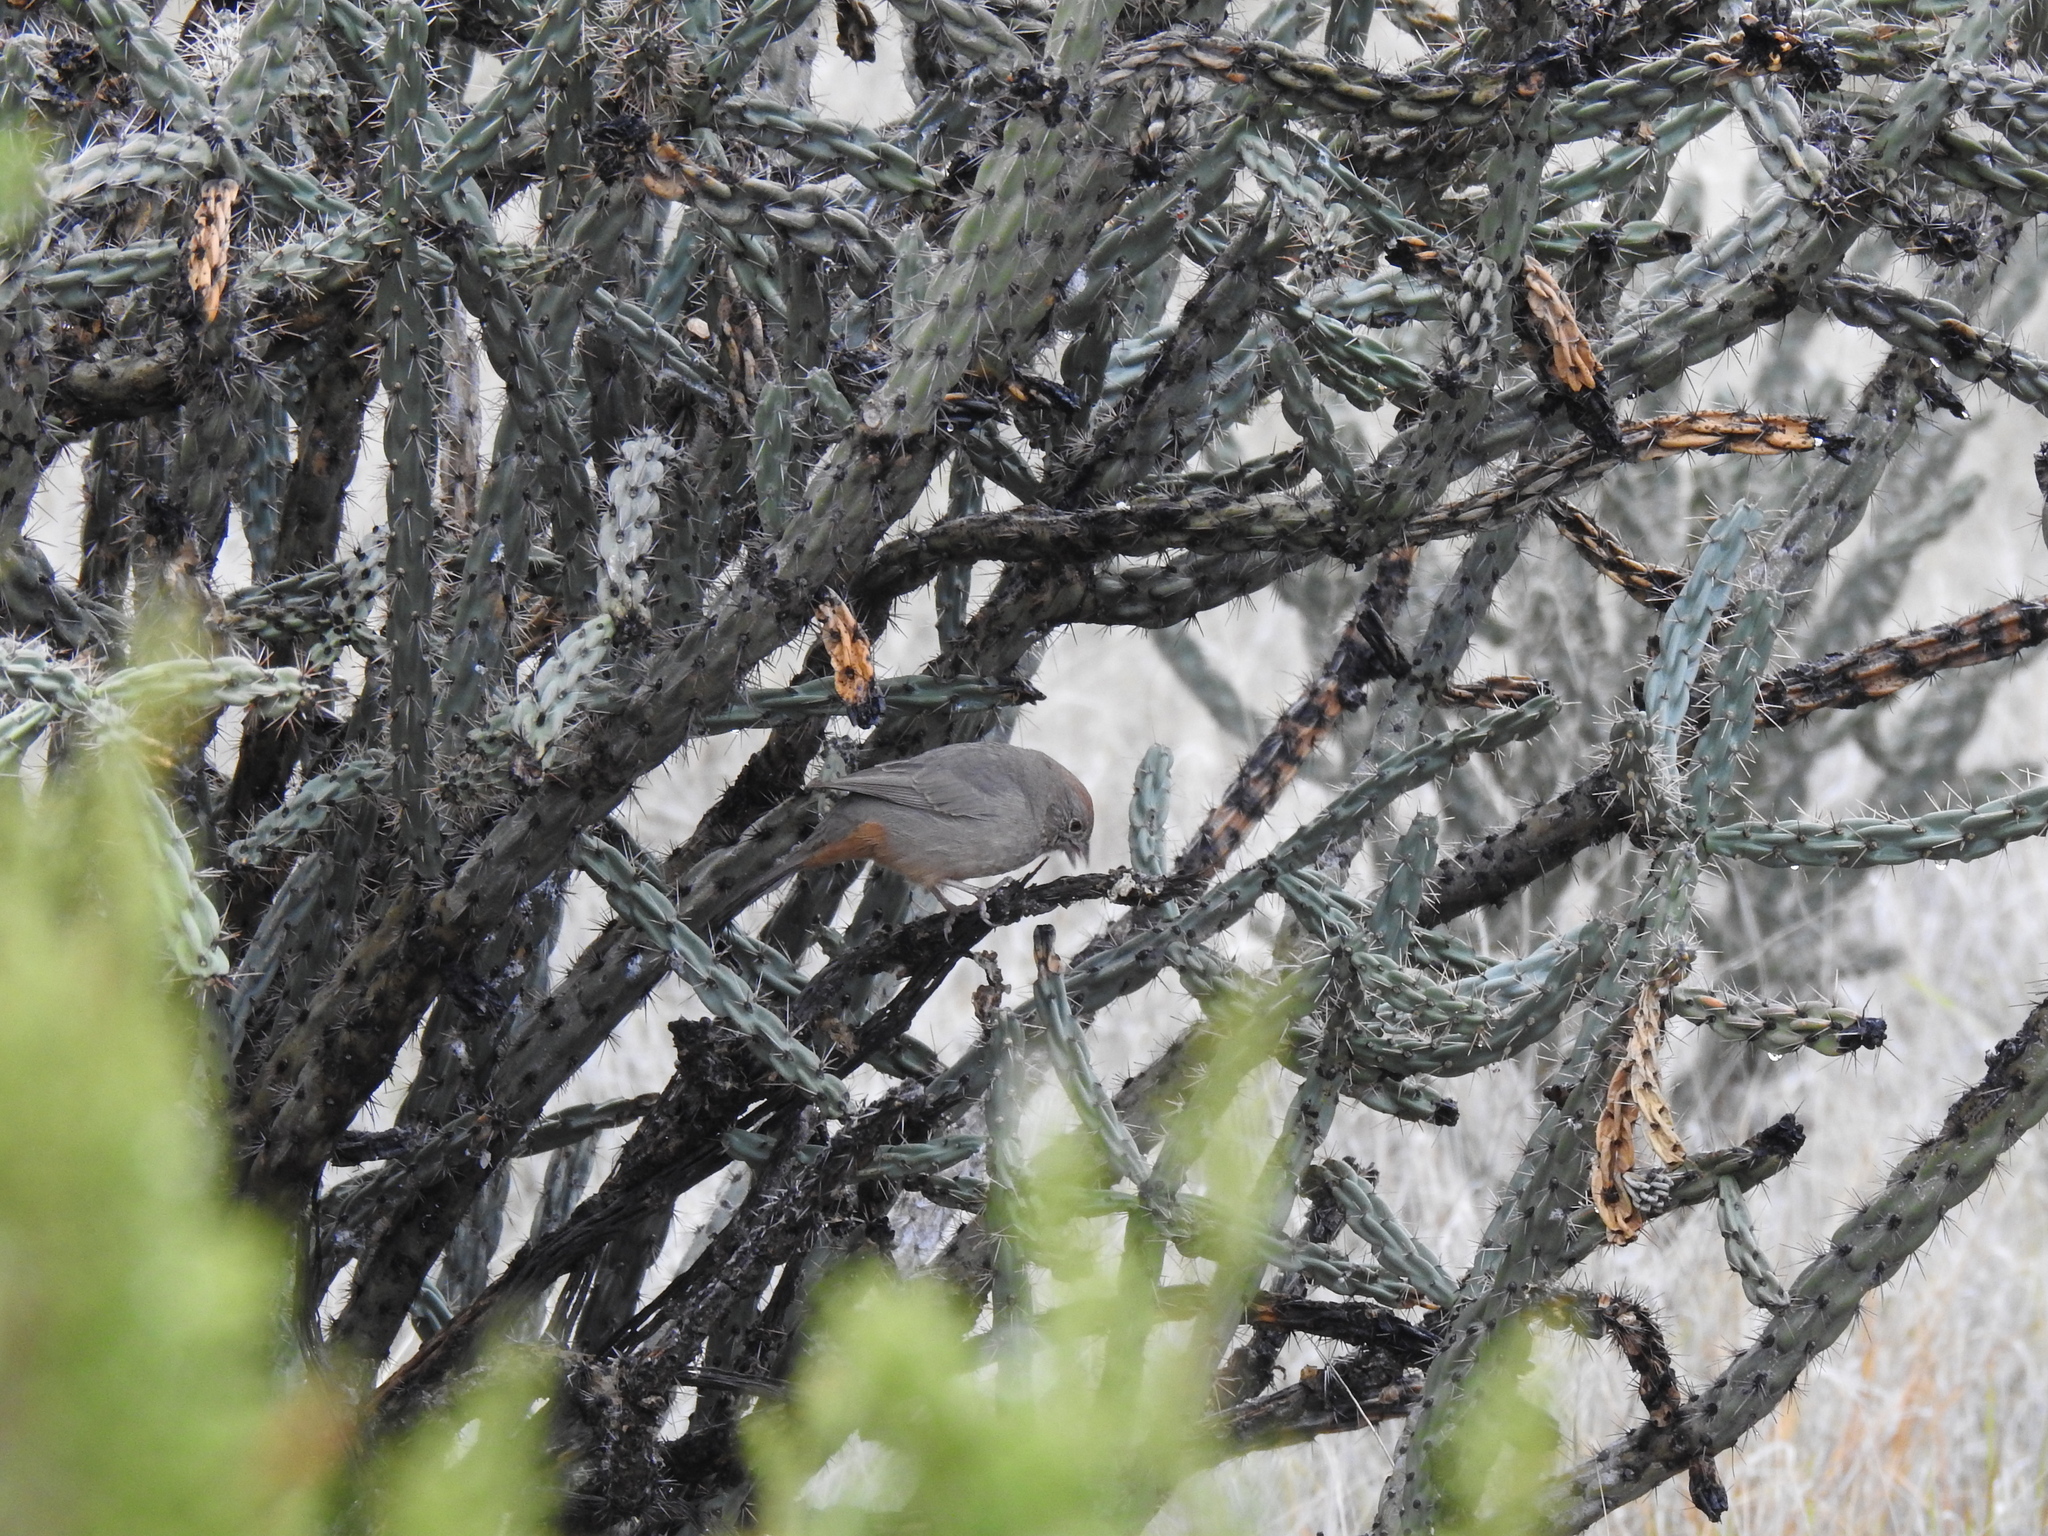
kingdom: Animalia
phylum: Chordata
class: Aves
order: Passeriformes
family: Passerellidae
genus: Melozone
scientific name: Melozone fusca
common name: Canyon towhee
